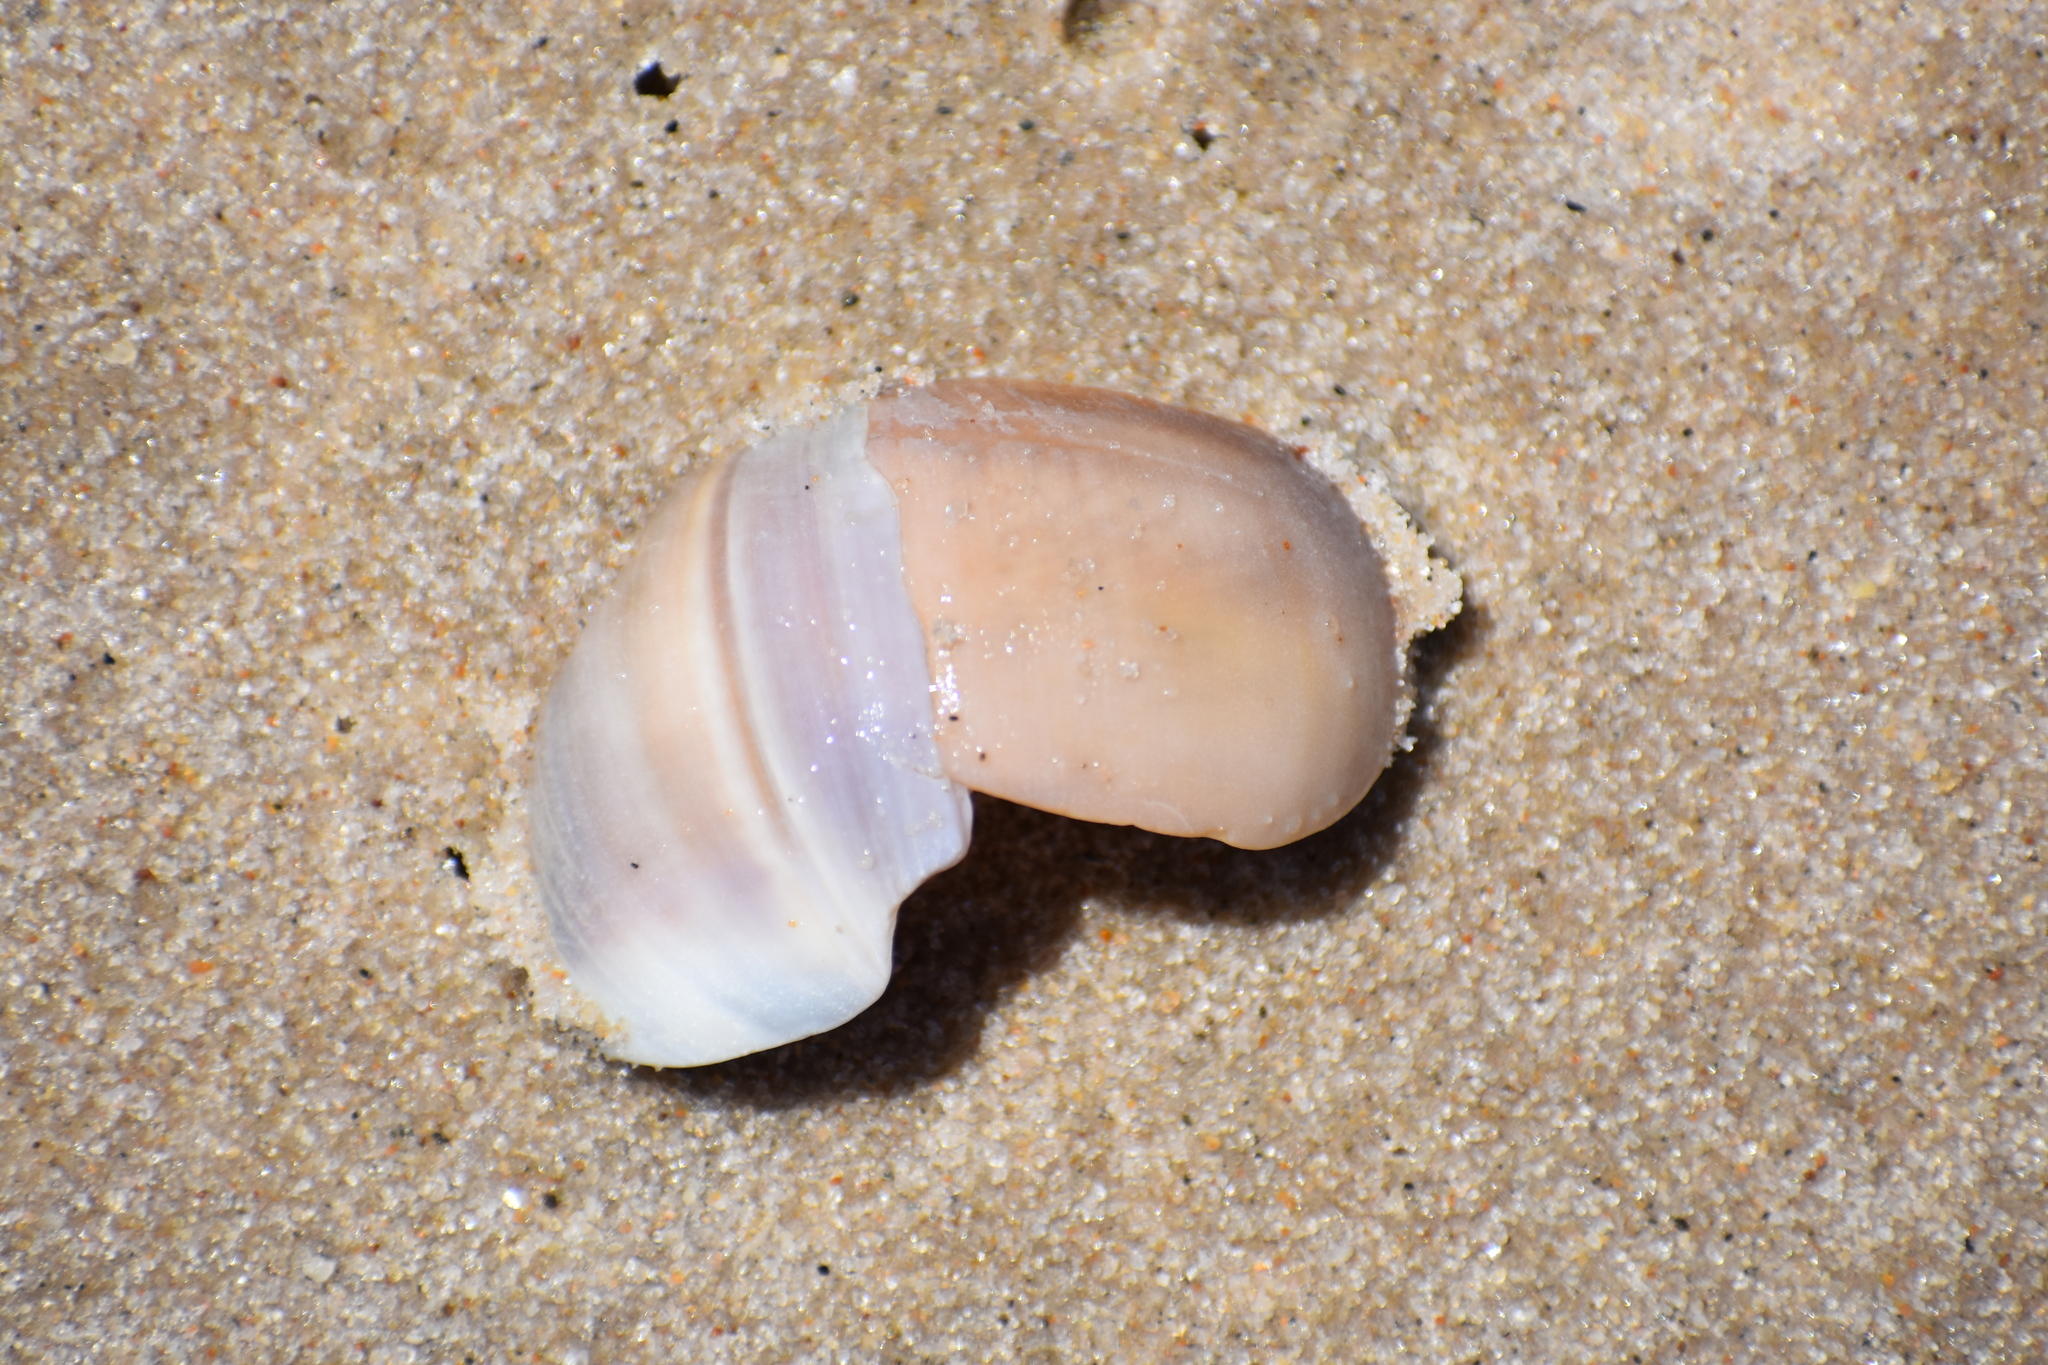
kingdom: Animalia
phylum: Mollusca
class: Gastropoda
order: Littorinimorpha
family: Naticidae
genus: Euspira
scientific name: Euspira heros
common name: Common northern moonsnail
